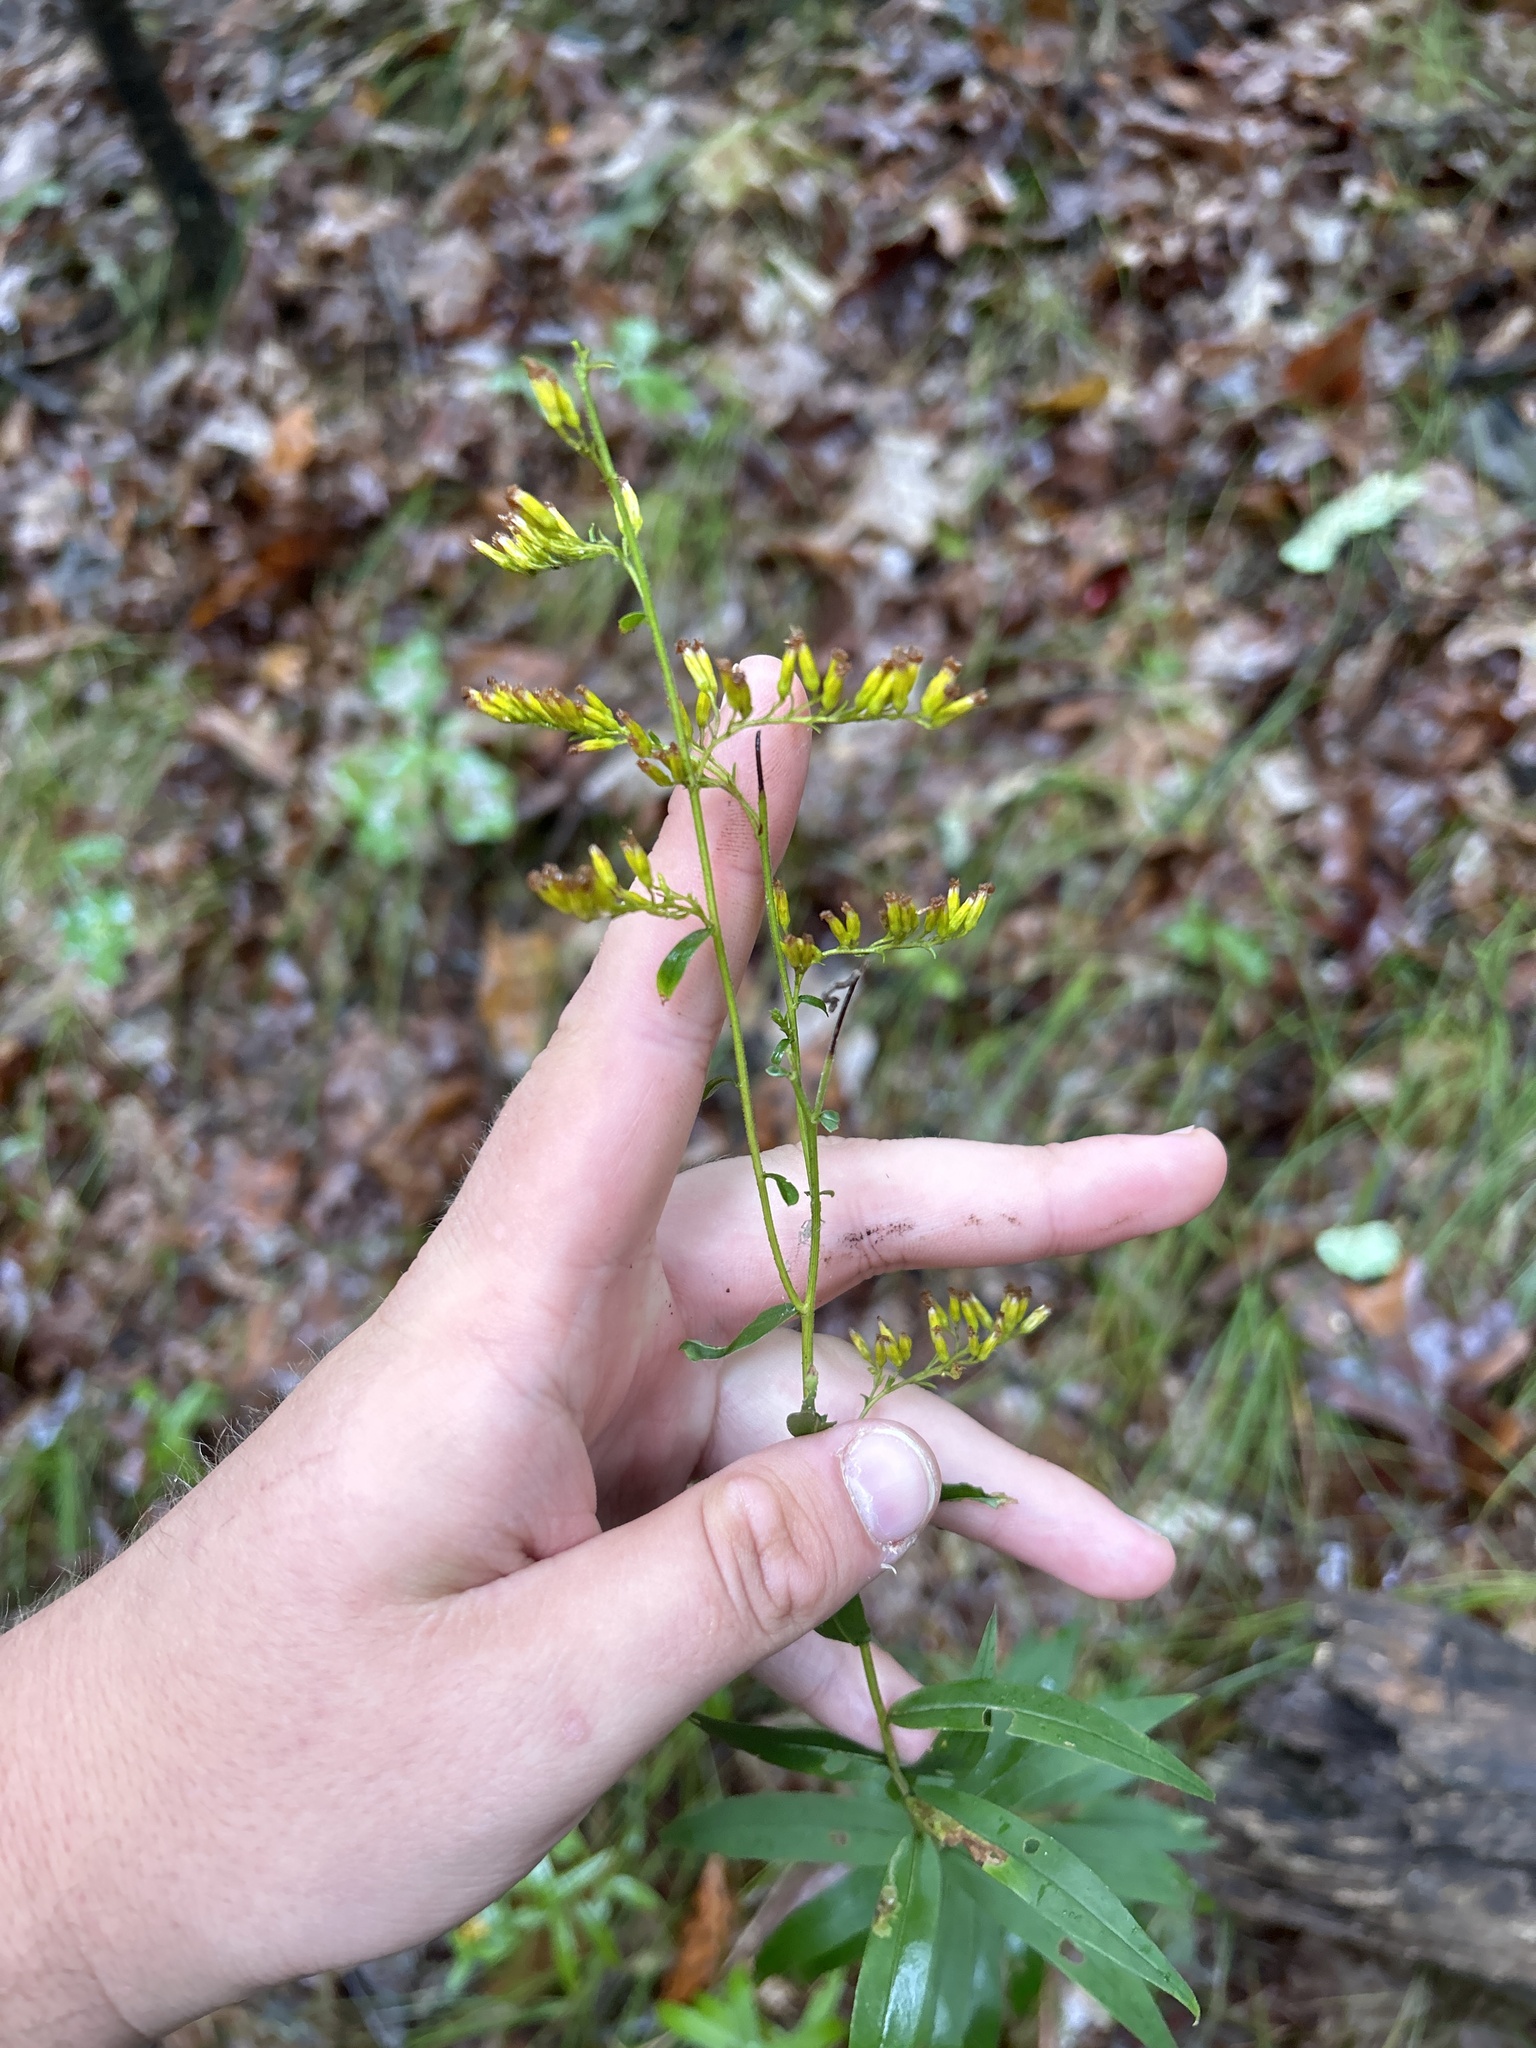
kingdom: Plantae
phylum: Tracheophyta
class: Magnoliopsida
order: Asterales
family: Asteraceae
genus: Solidago
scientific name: Solidago odora
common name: Anise-scented goldenrod
